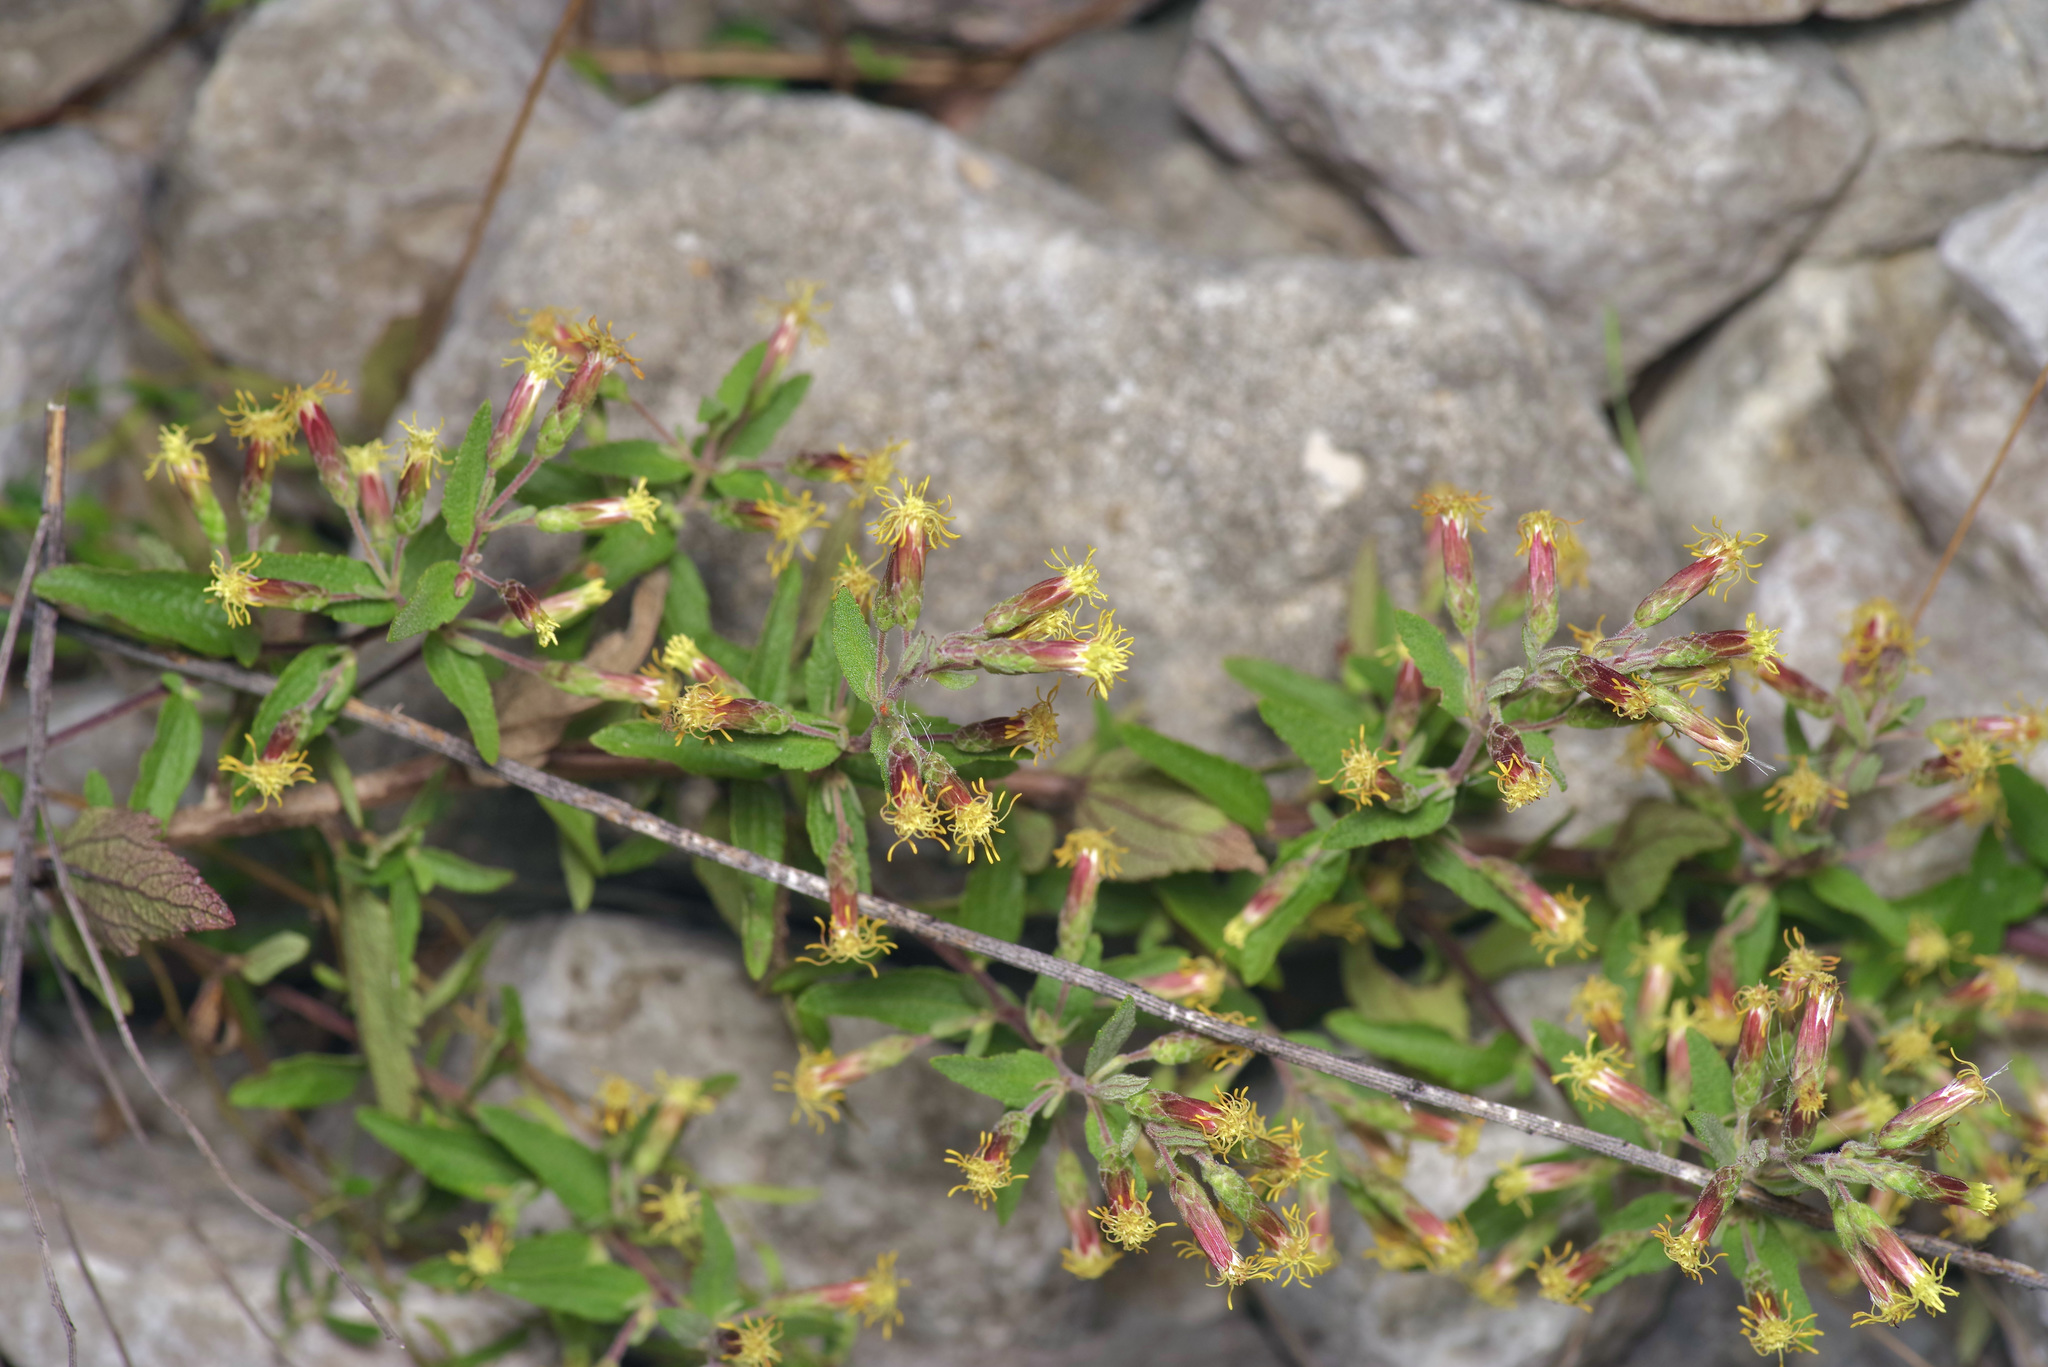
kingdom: Plantae
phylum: Tracheophyta
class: Magnoliopsida
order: Asterales
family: Asteraceae
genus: Brickellia
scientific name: Brickellia cylindracea
